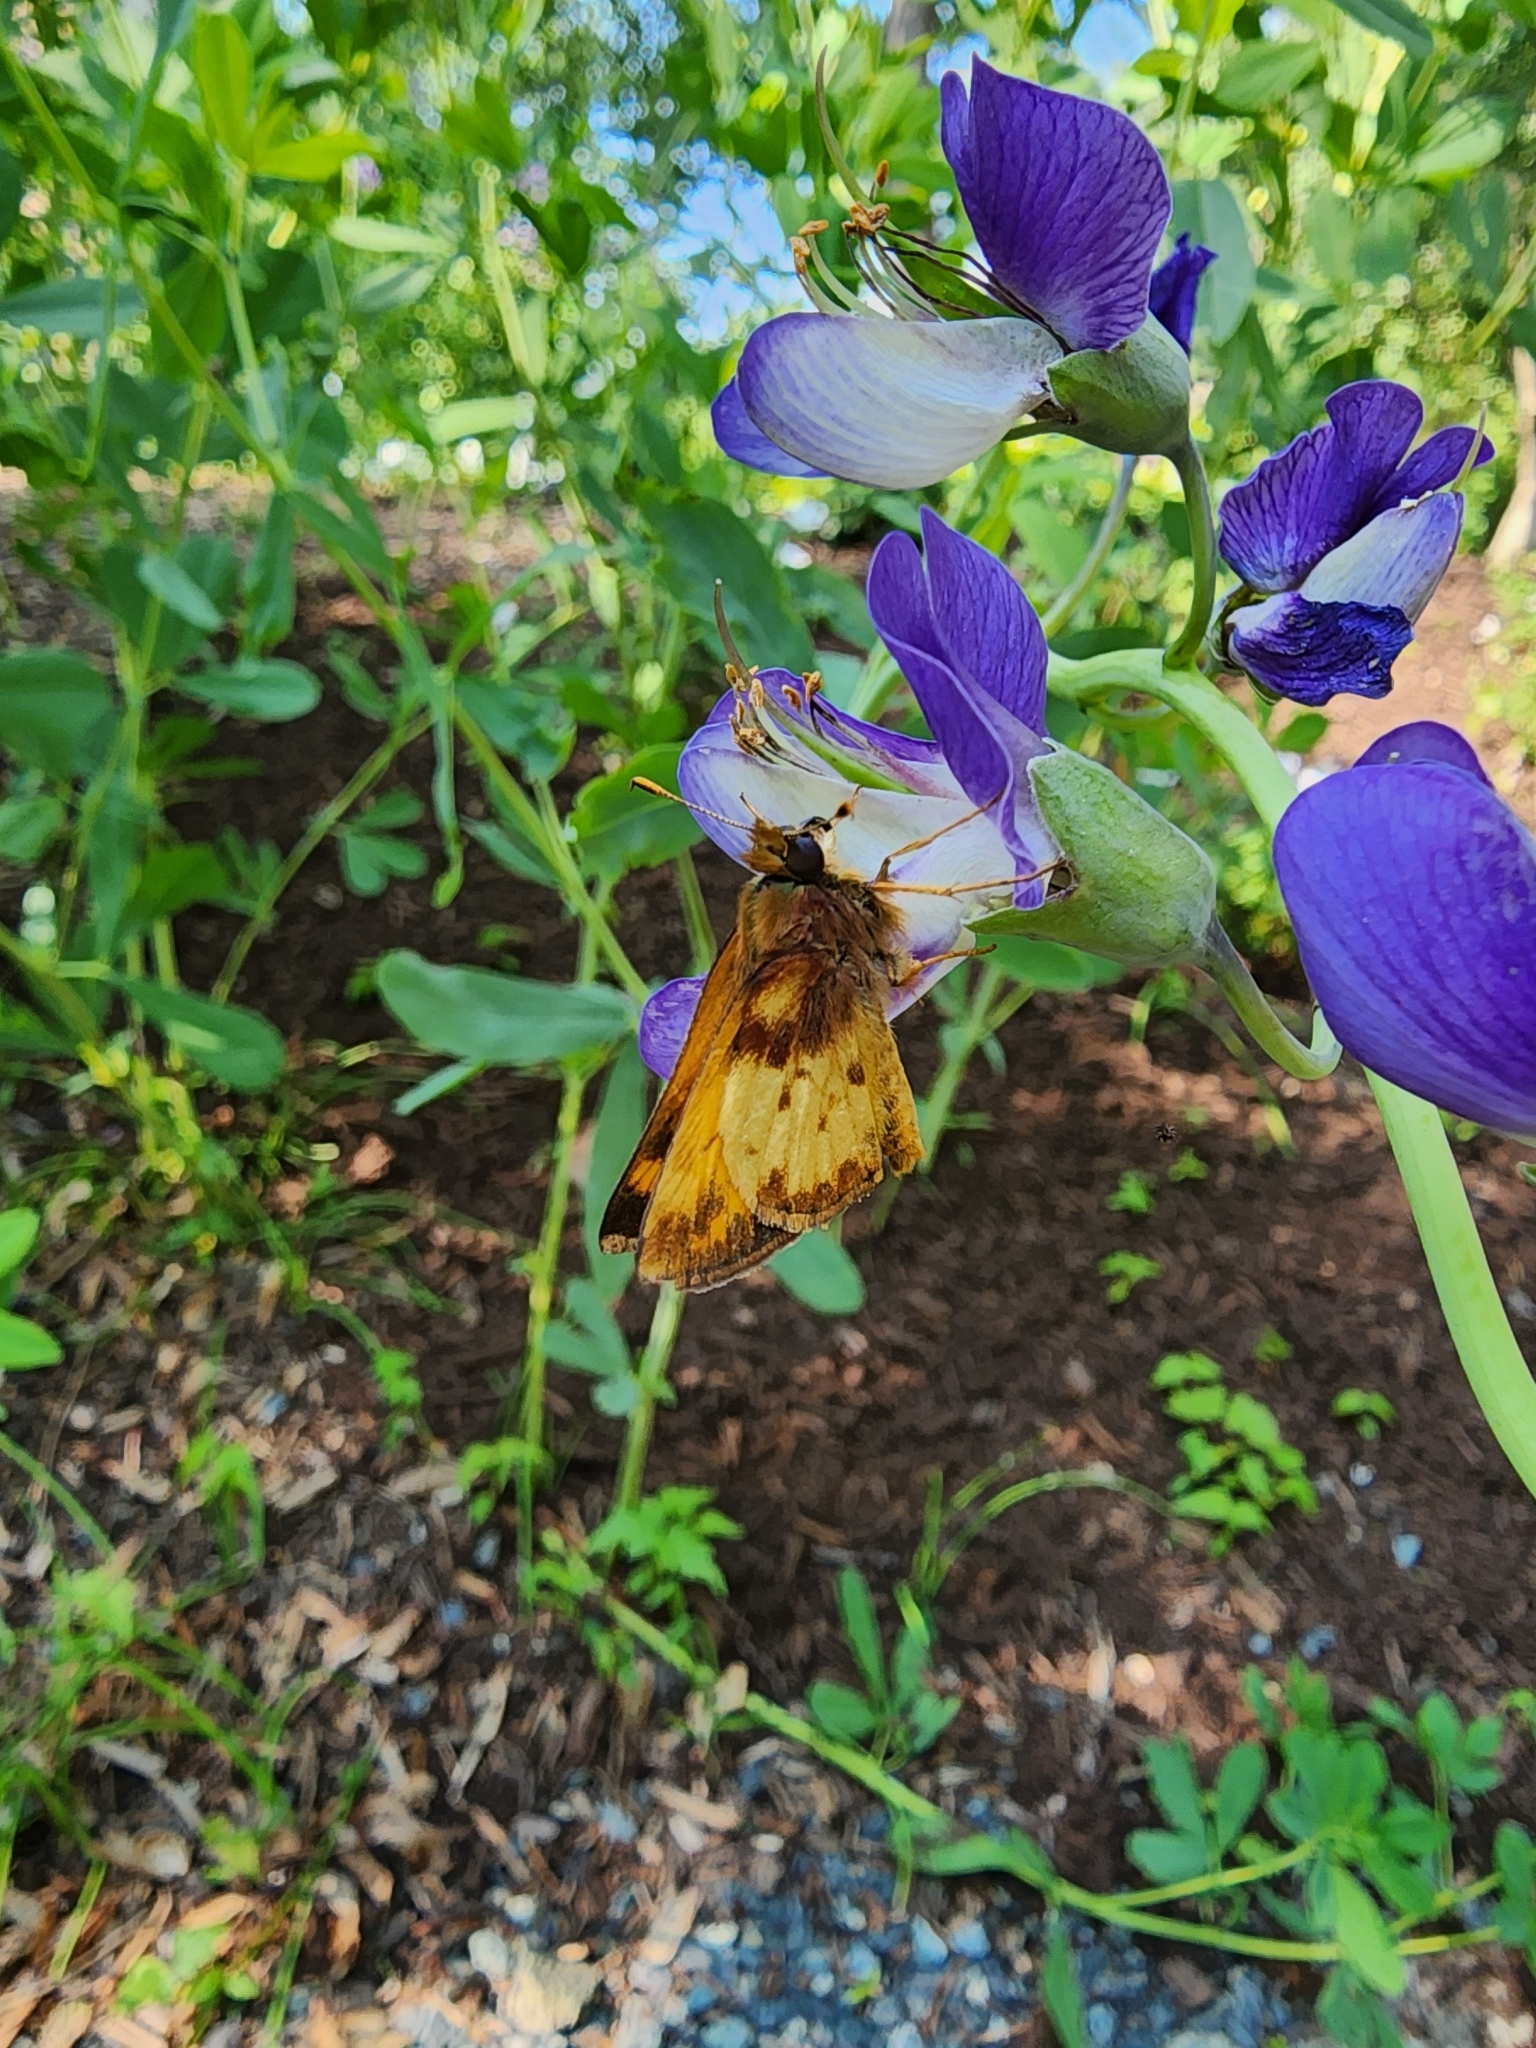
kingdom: Animalia
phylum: Arthropoda
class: Insecta
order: Lepidoptera
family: Hesperiidae
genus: Lon
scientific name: Lon zabulon
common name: Zabulon skipper
